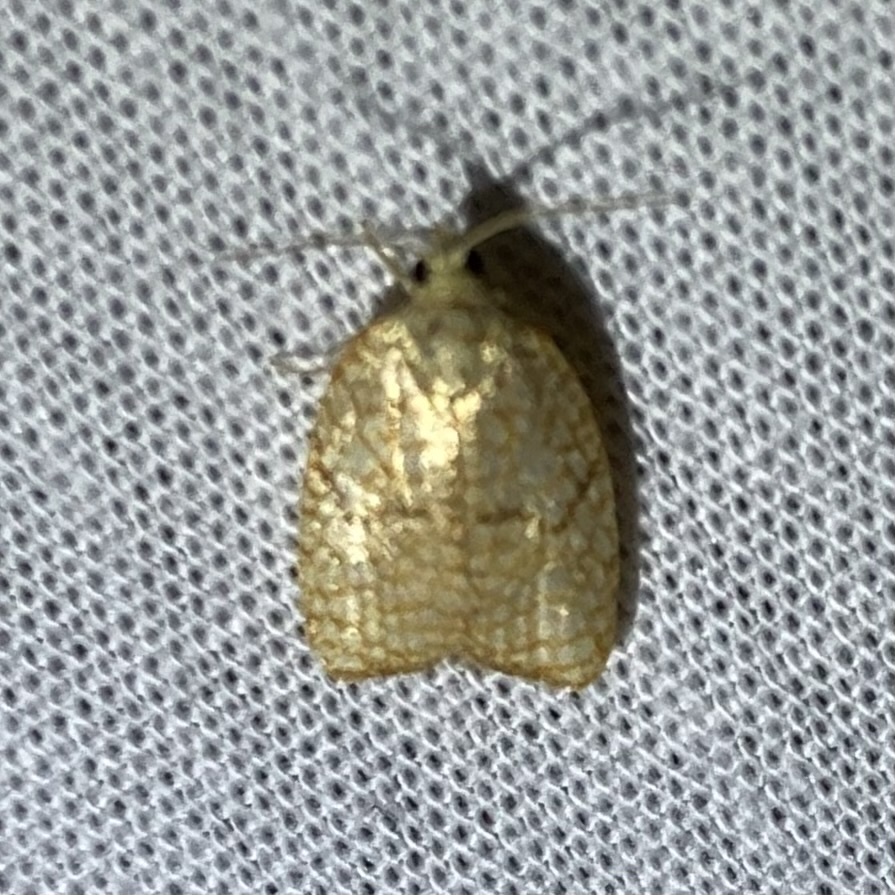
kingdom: Animalia
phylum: Arthropoda
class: Insecta
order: Lepidoptera
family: Tortricidae
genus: Acleris
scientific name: Acleris forsskaleana
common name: Maple button
